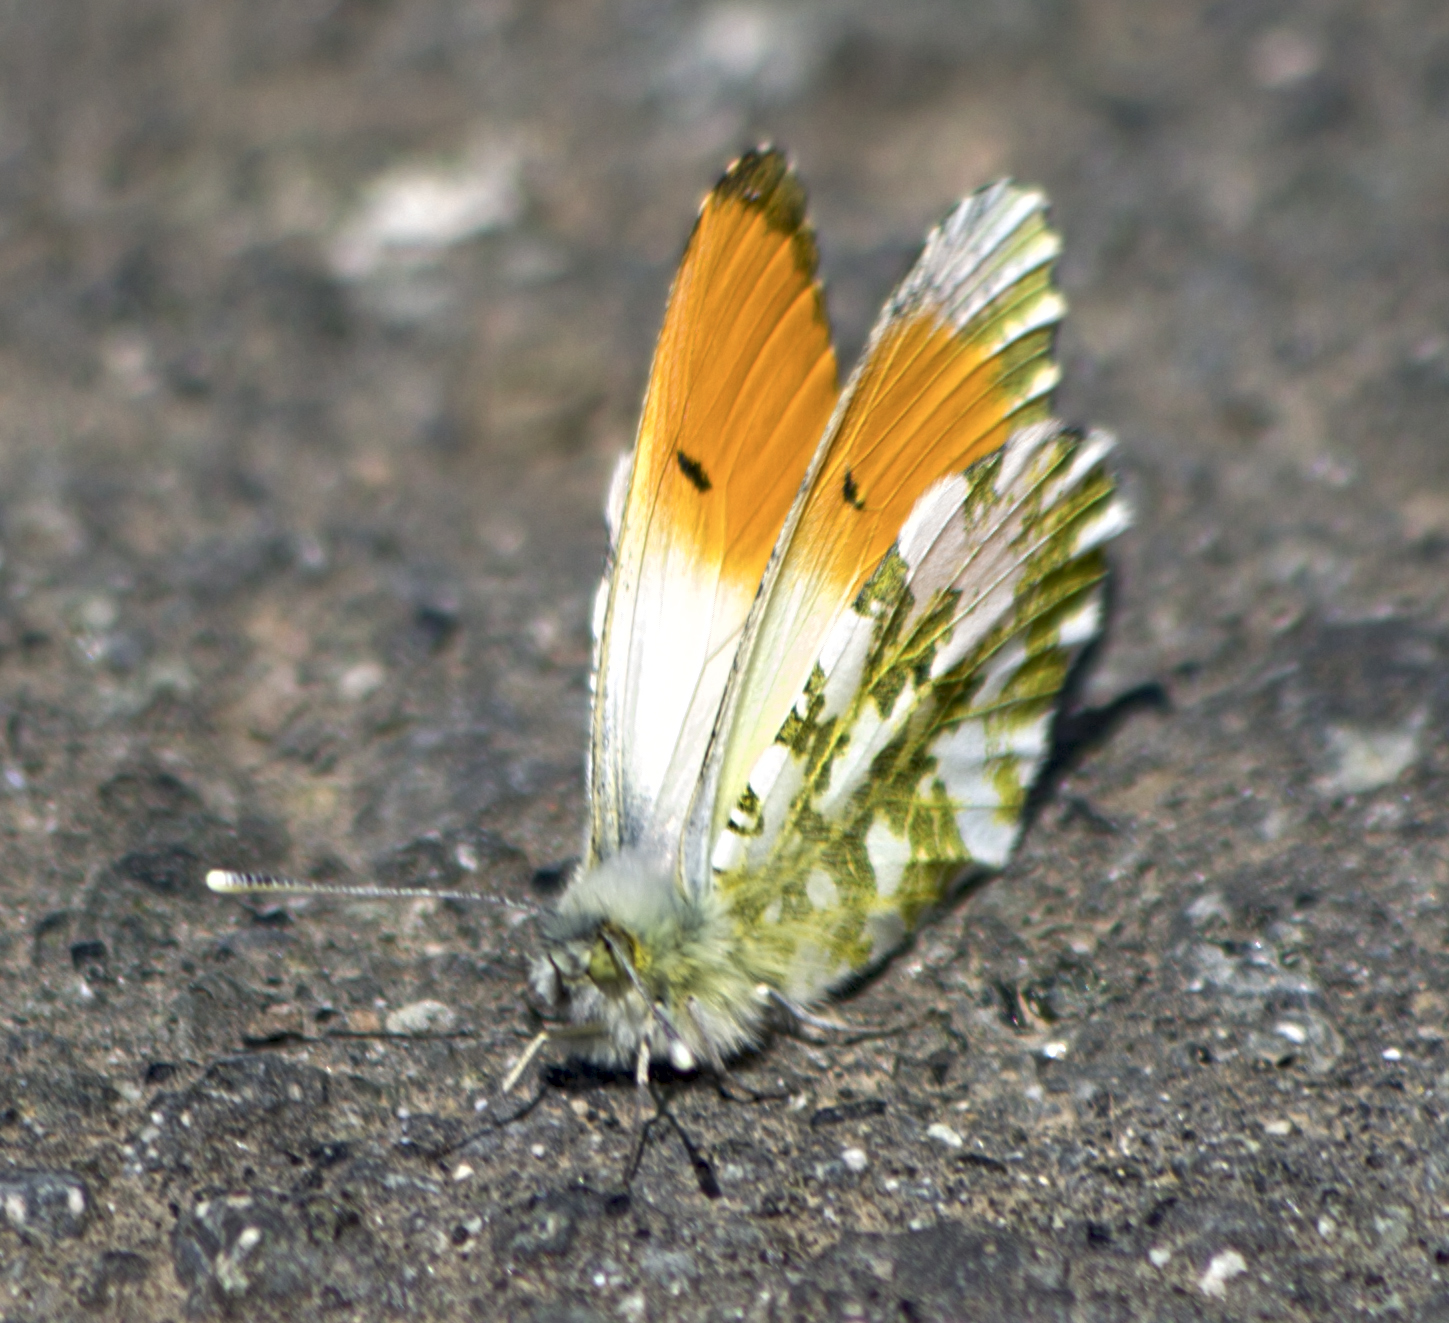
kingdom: Animalia
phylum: Arthropoda
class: Insecta
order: Lepidoptera
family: Pieridae
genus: Anthocharis
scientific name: Anthocharis cardamines
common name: Orange-tip
